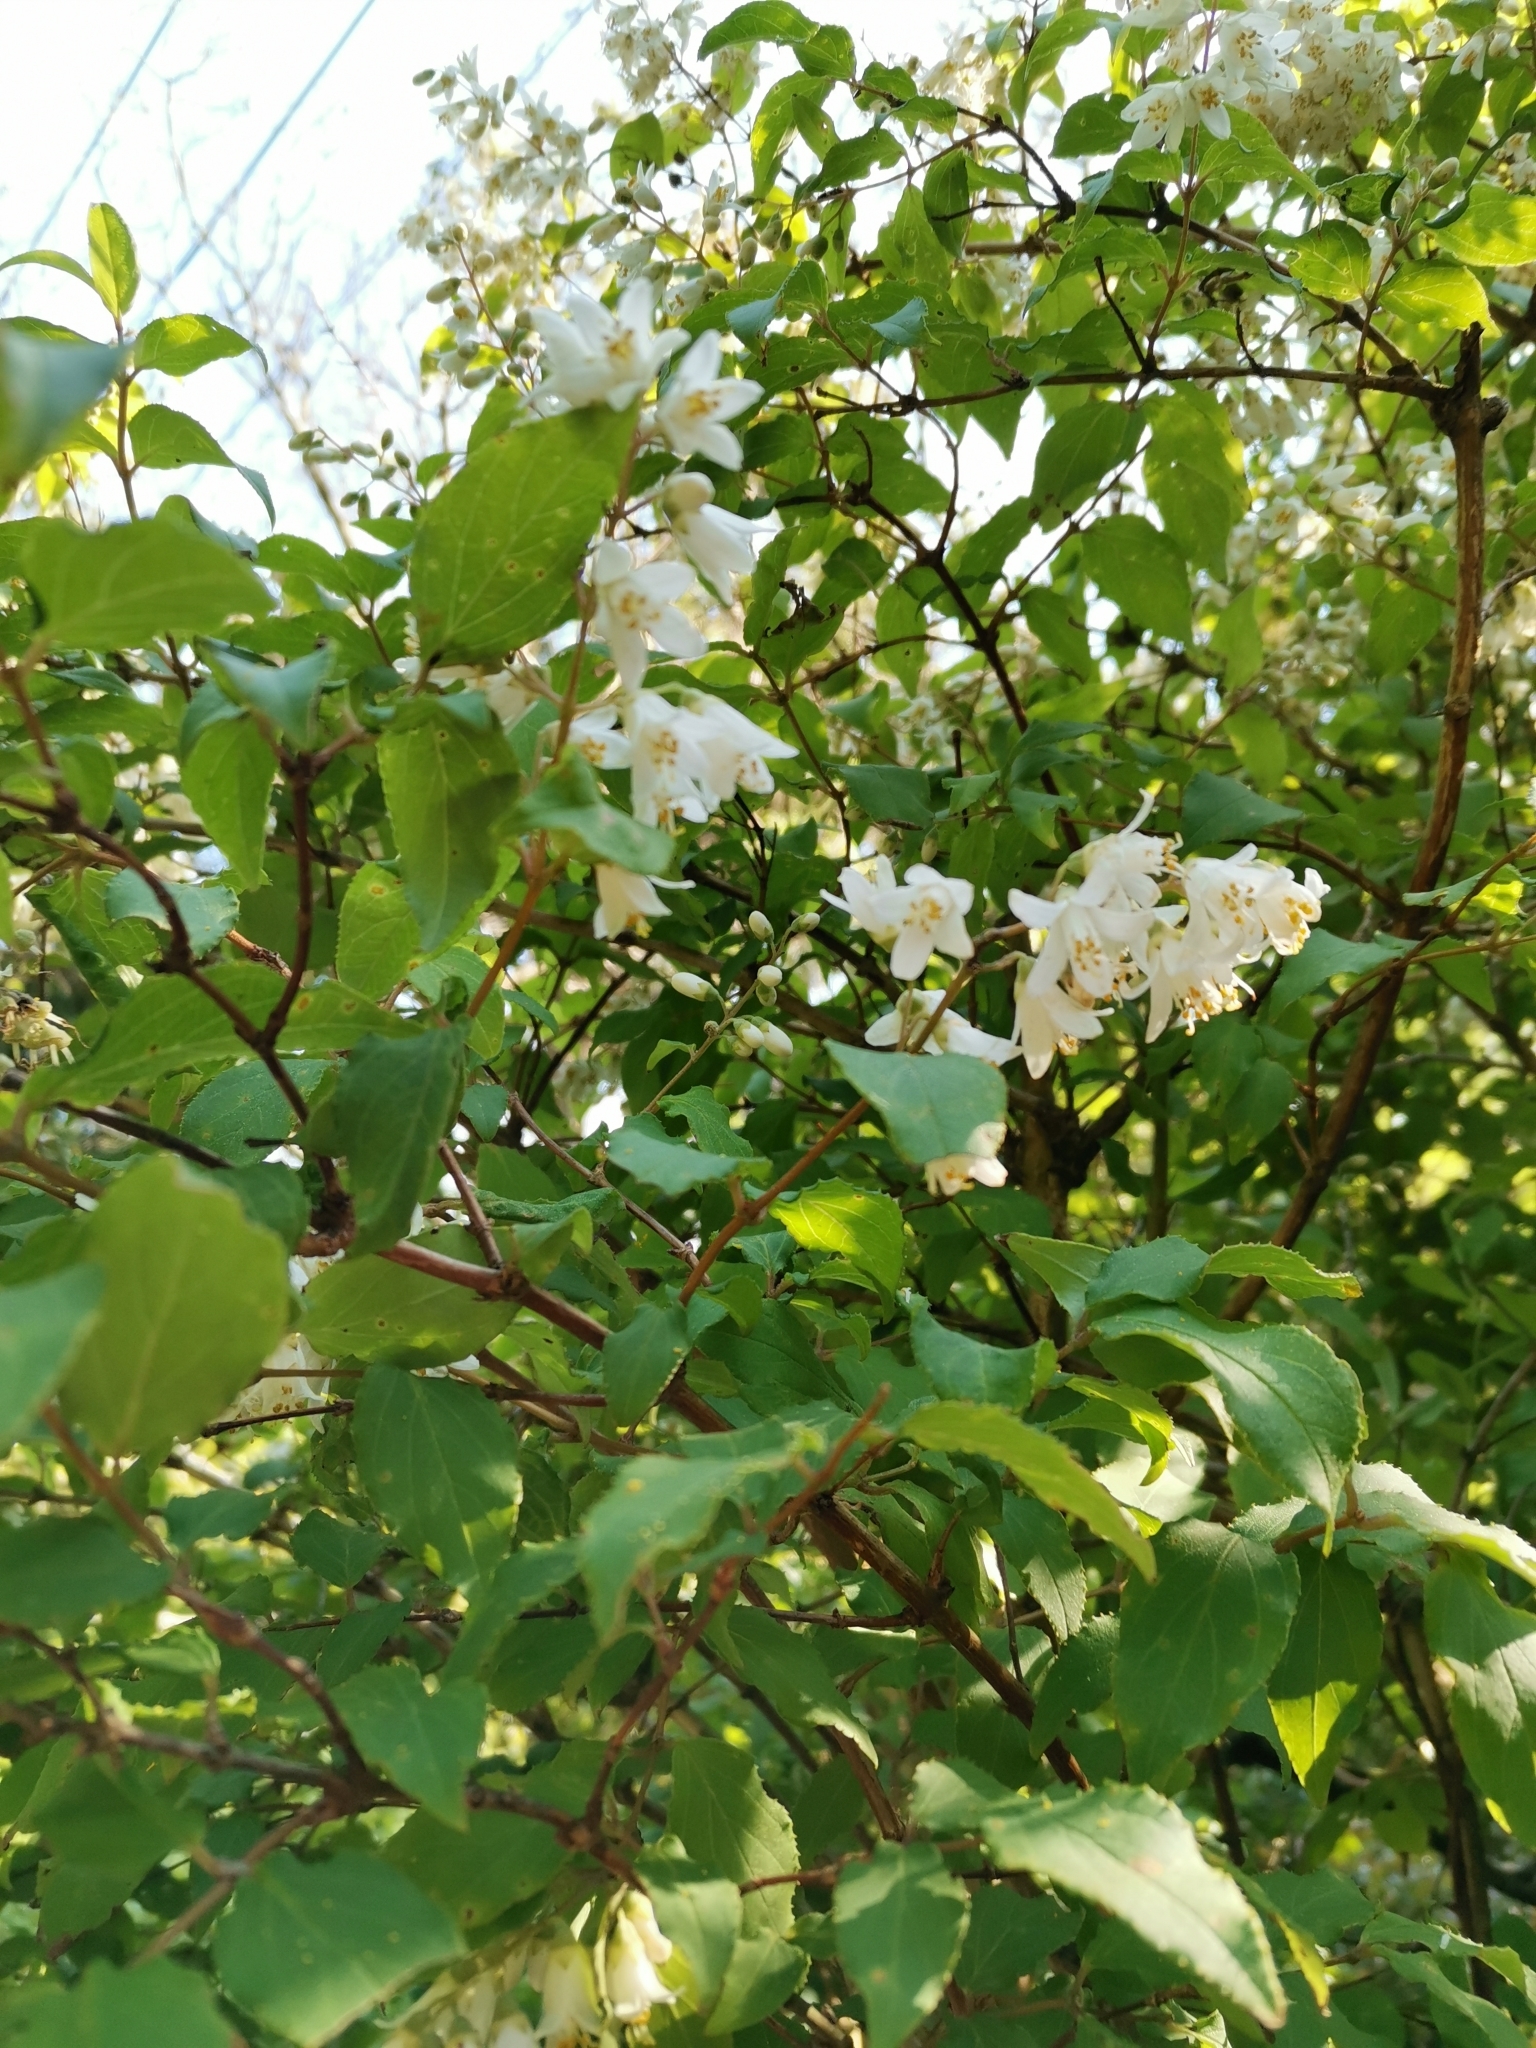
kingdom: Plantae
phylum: Tracheophyta
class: Magnoliopsida
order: Cornales
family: Hydrangeaceae
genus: Deutzia
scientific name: Deutzia crenata
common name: Deutzia
